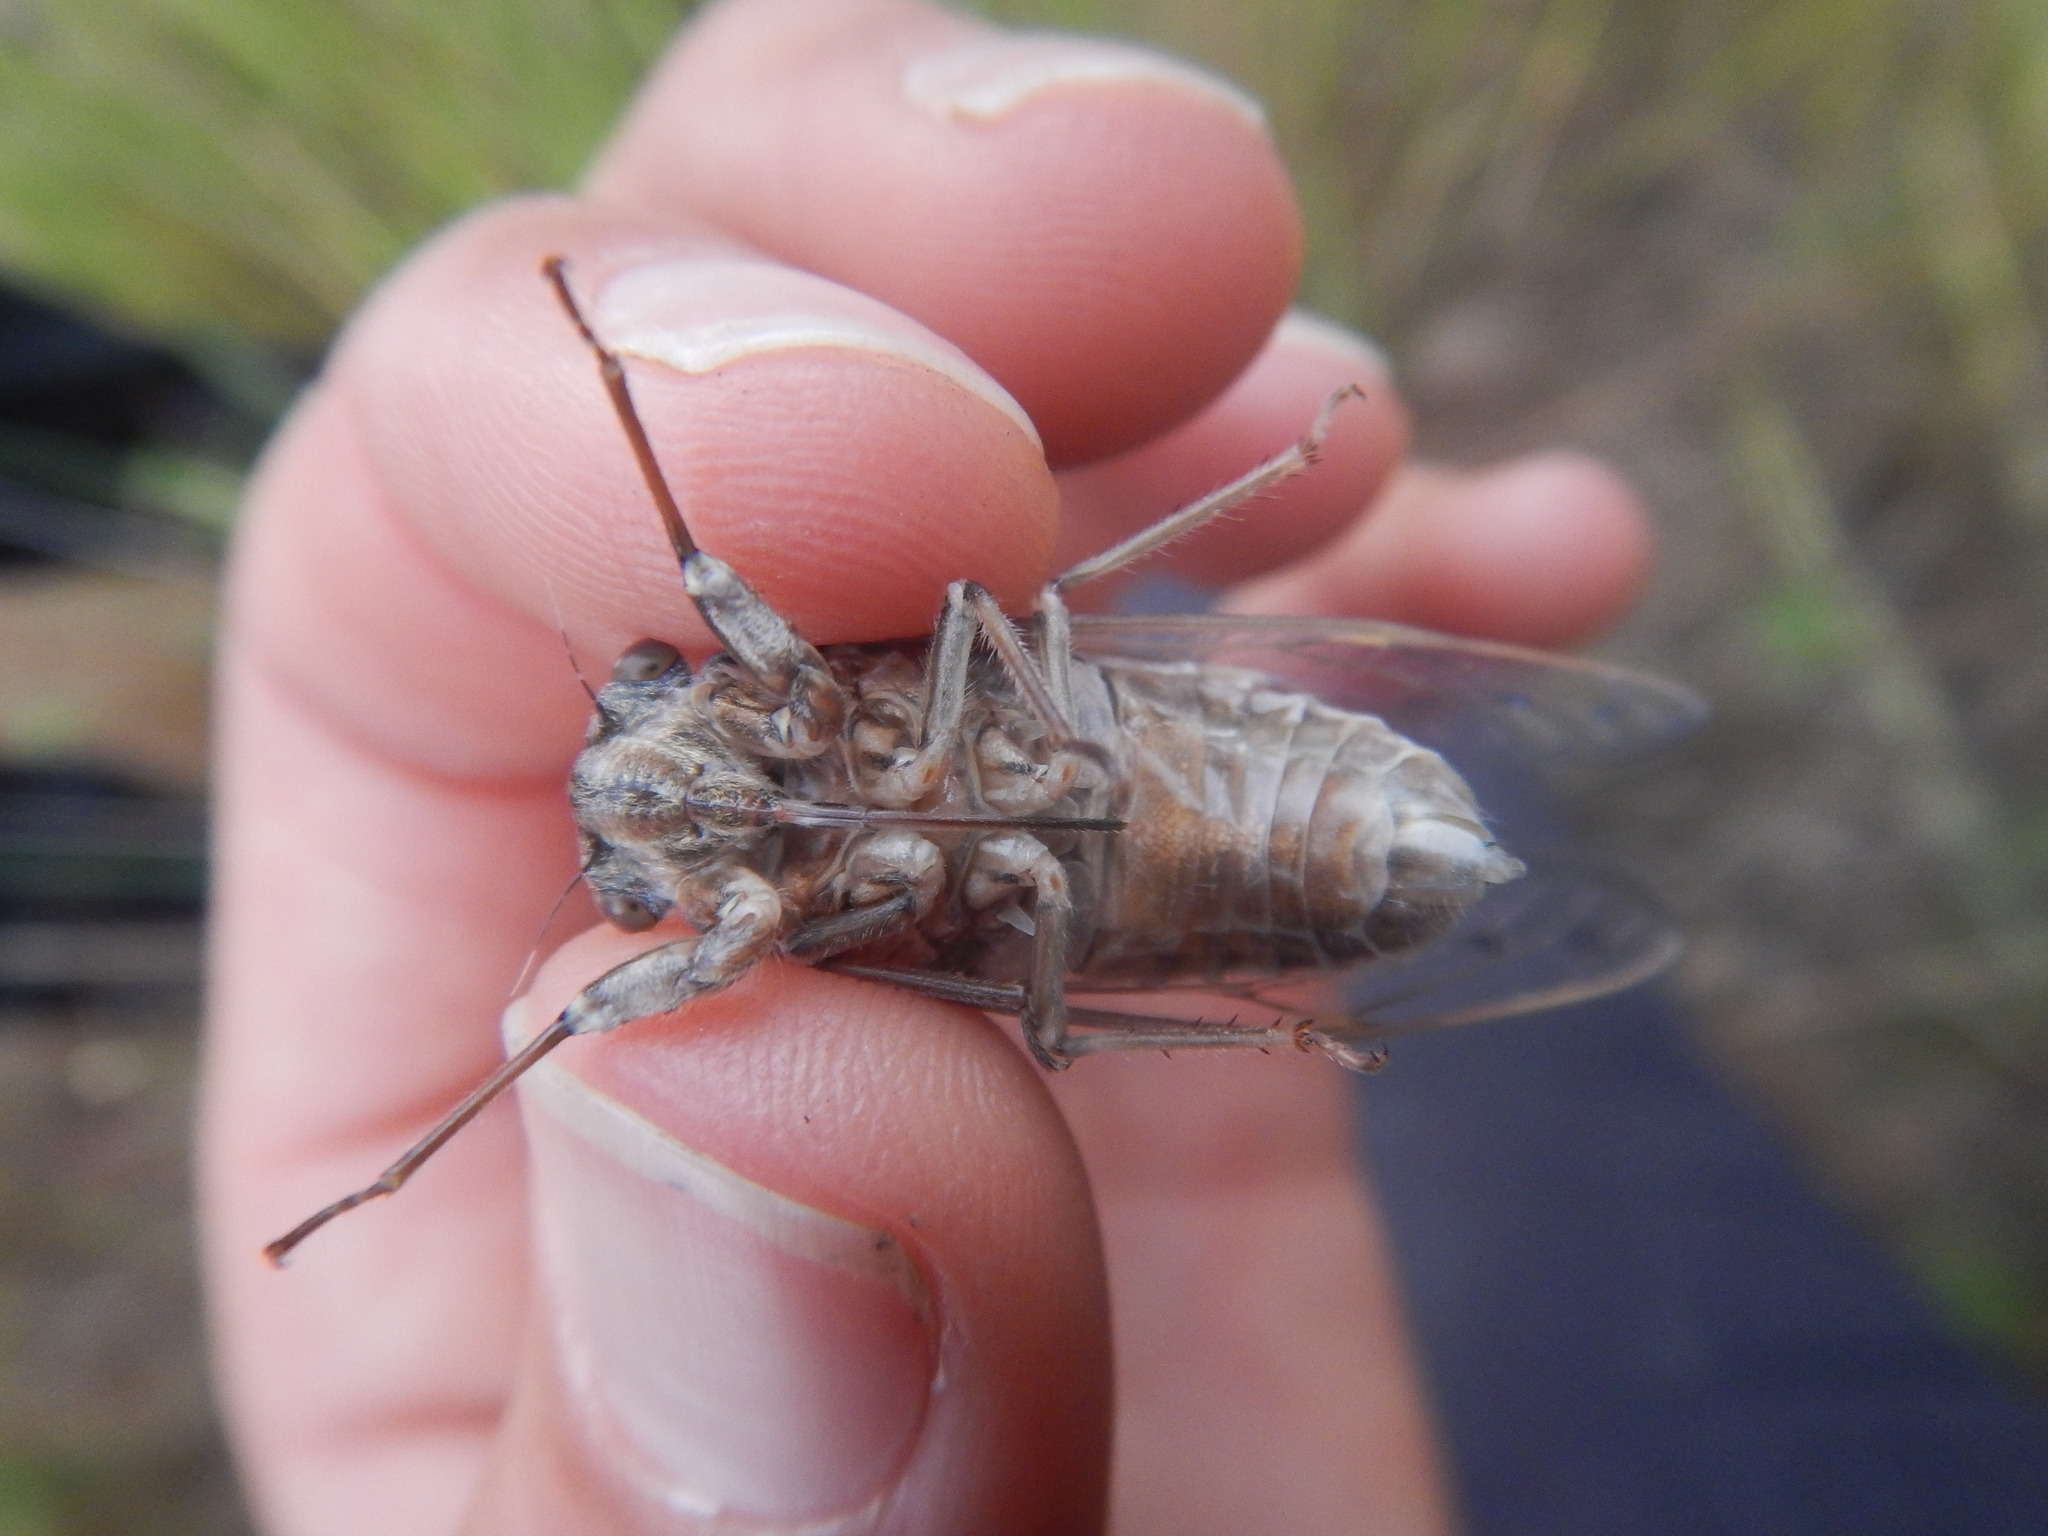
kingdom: Animalia
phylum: Arthropoda
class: Insecta
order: Hemiptera
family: Cicadidae
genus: Cicada
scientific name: Cicada orni
